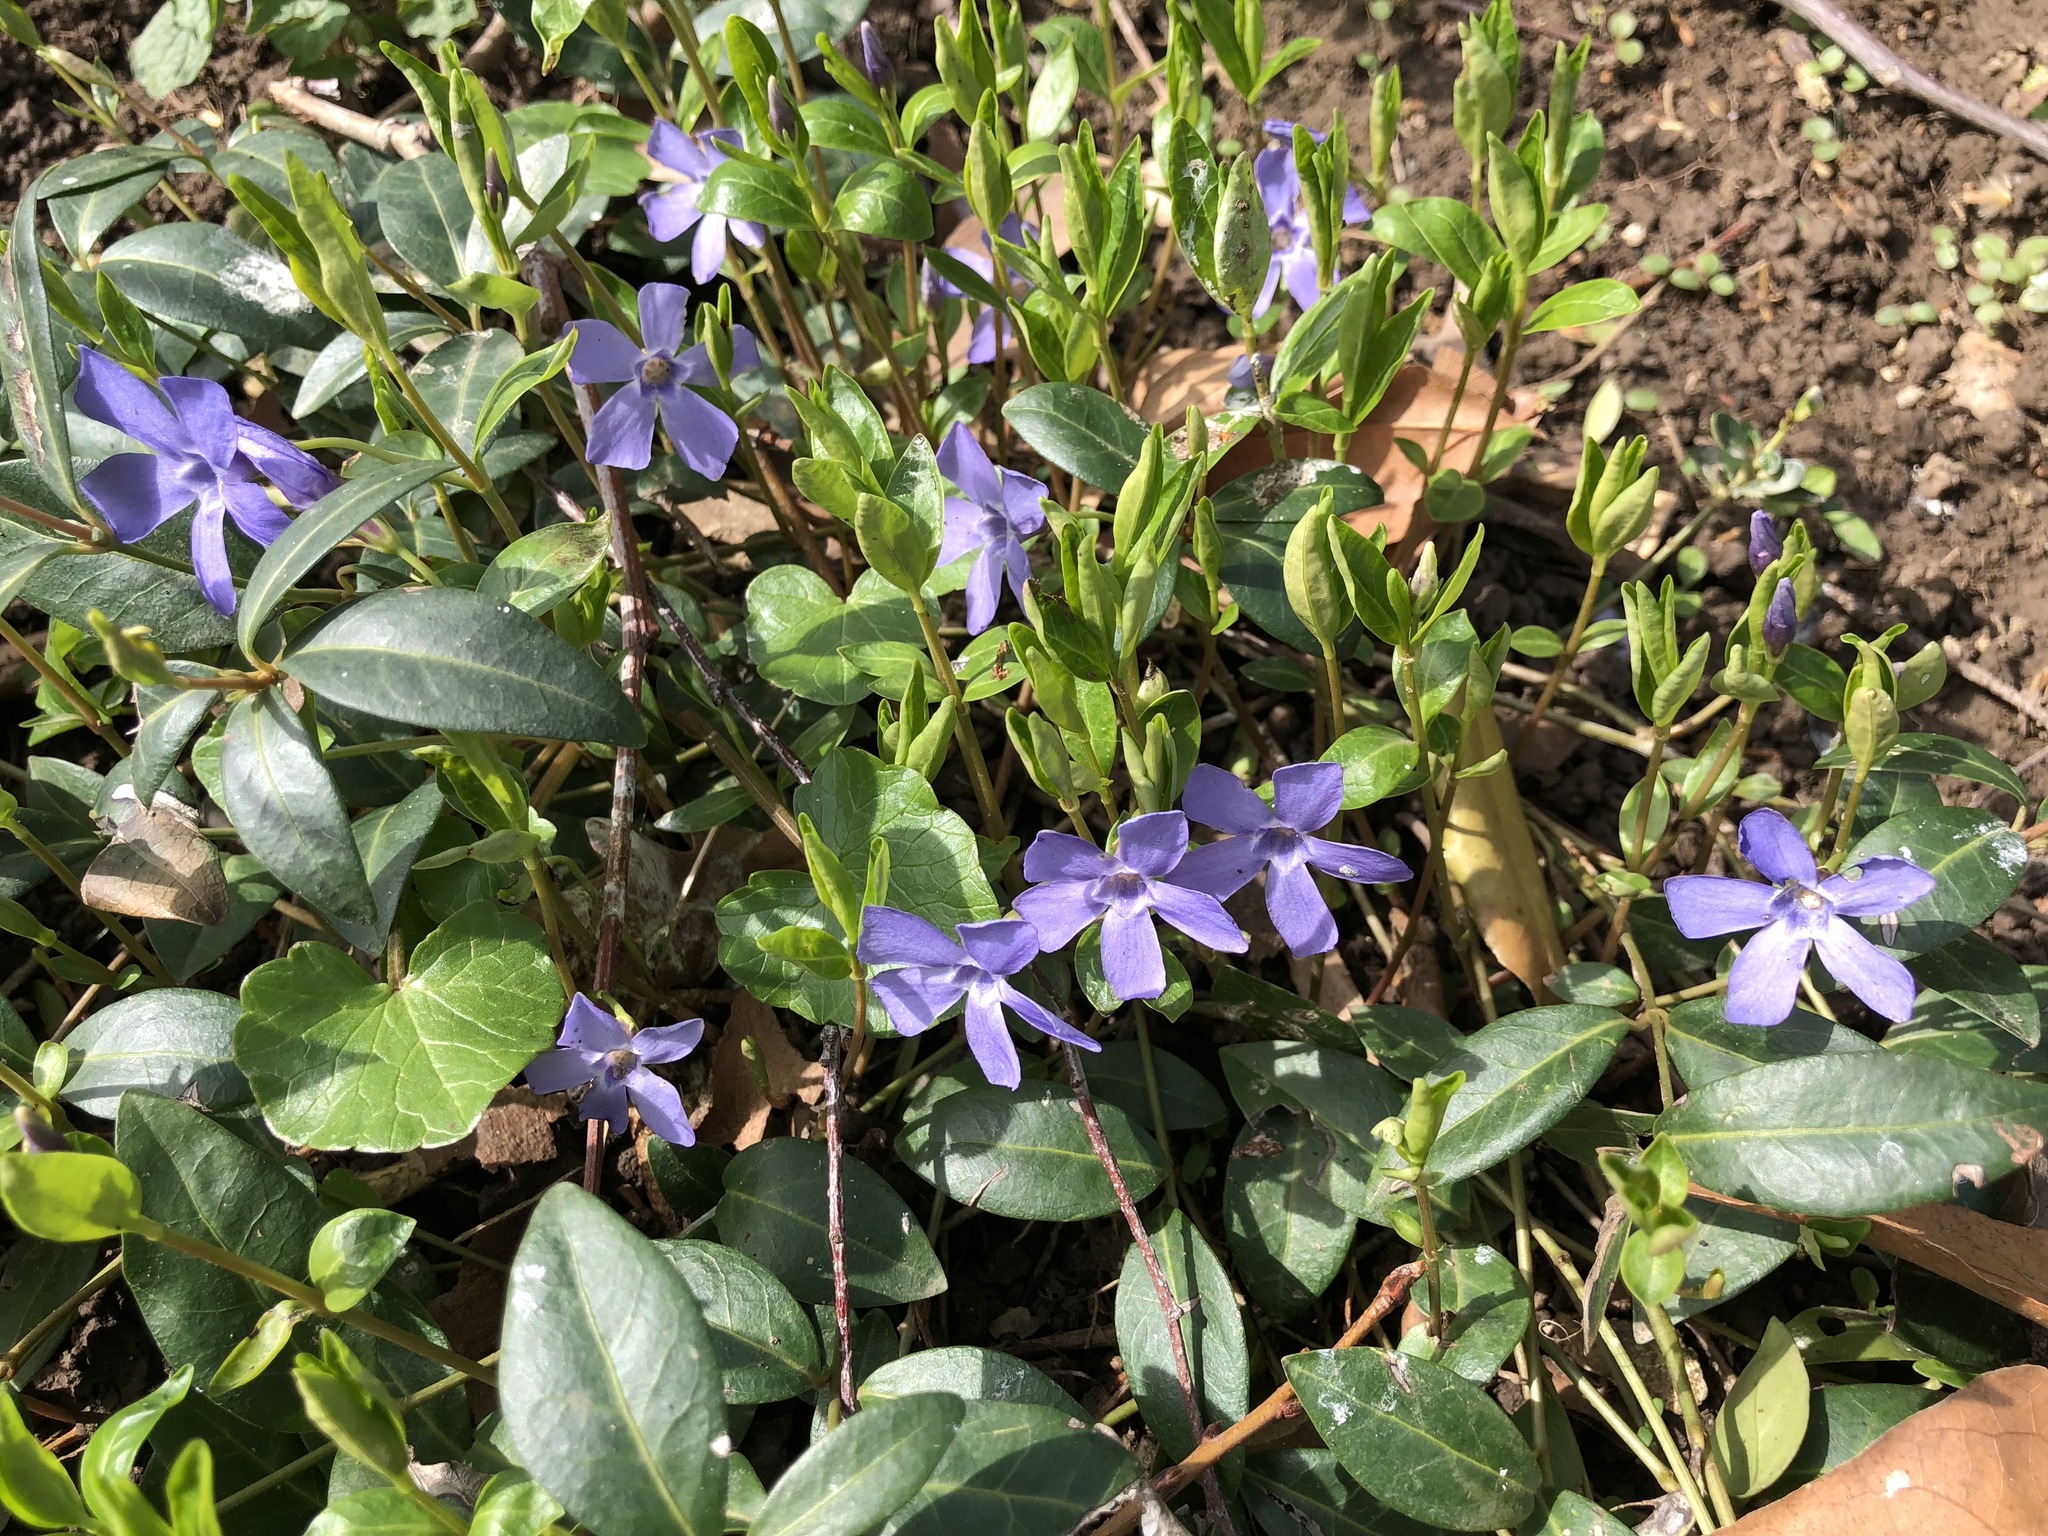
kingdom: Plantae
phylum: Tracheophyta
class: Magnoliopsida
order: Gentianales
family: Apocynaceae
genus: Vinca
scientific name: Vinca minor
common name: Lesser periwinkle
